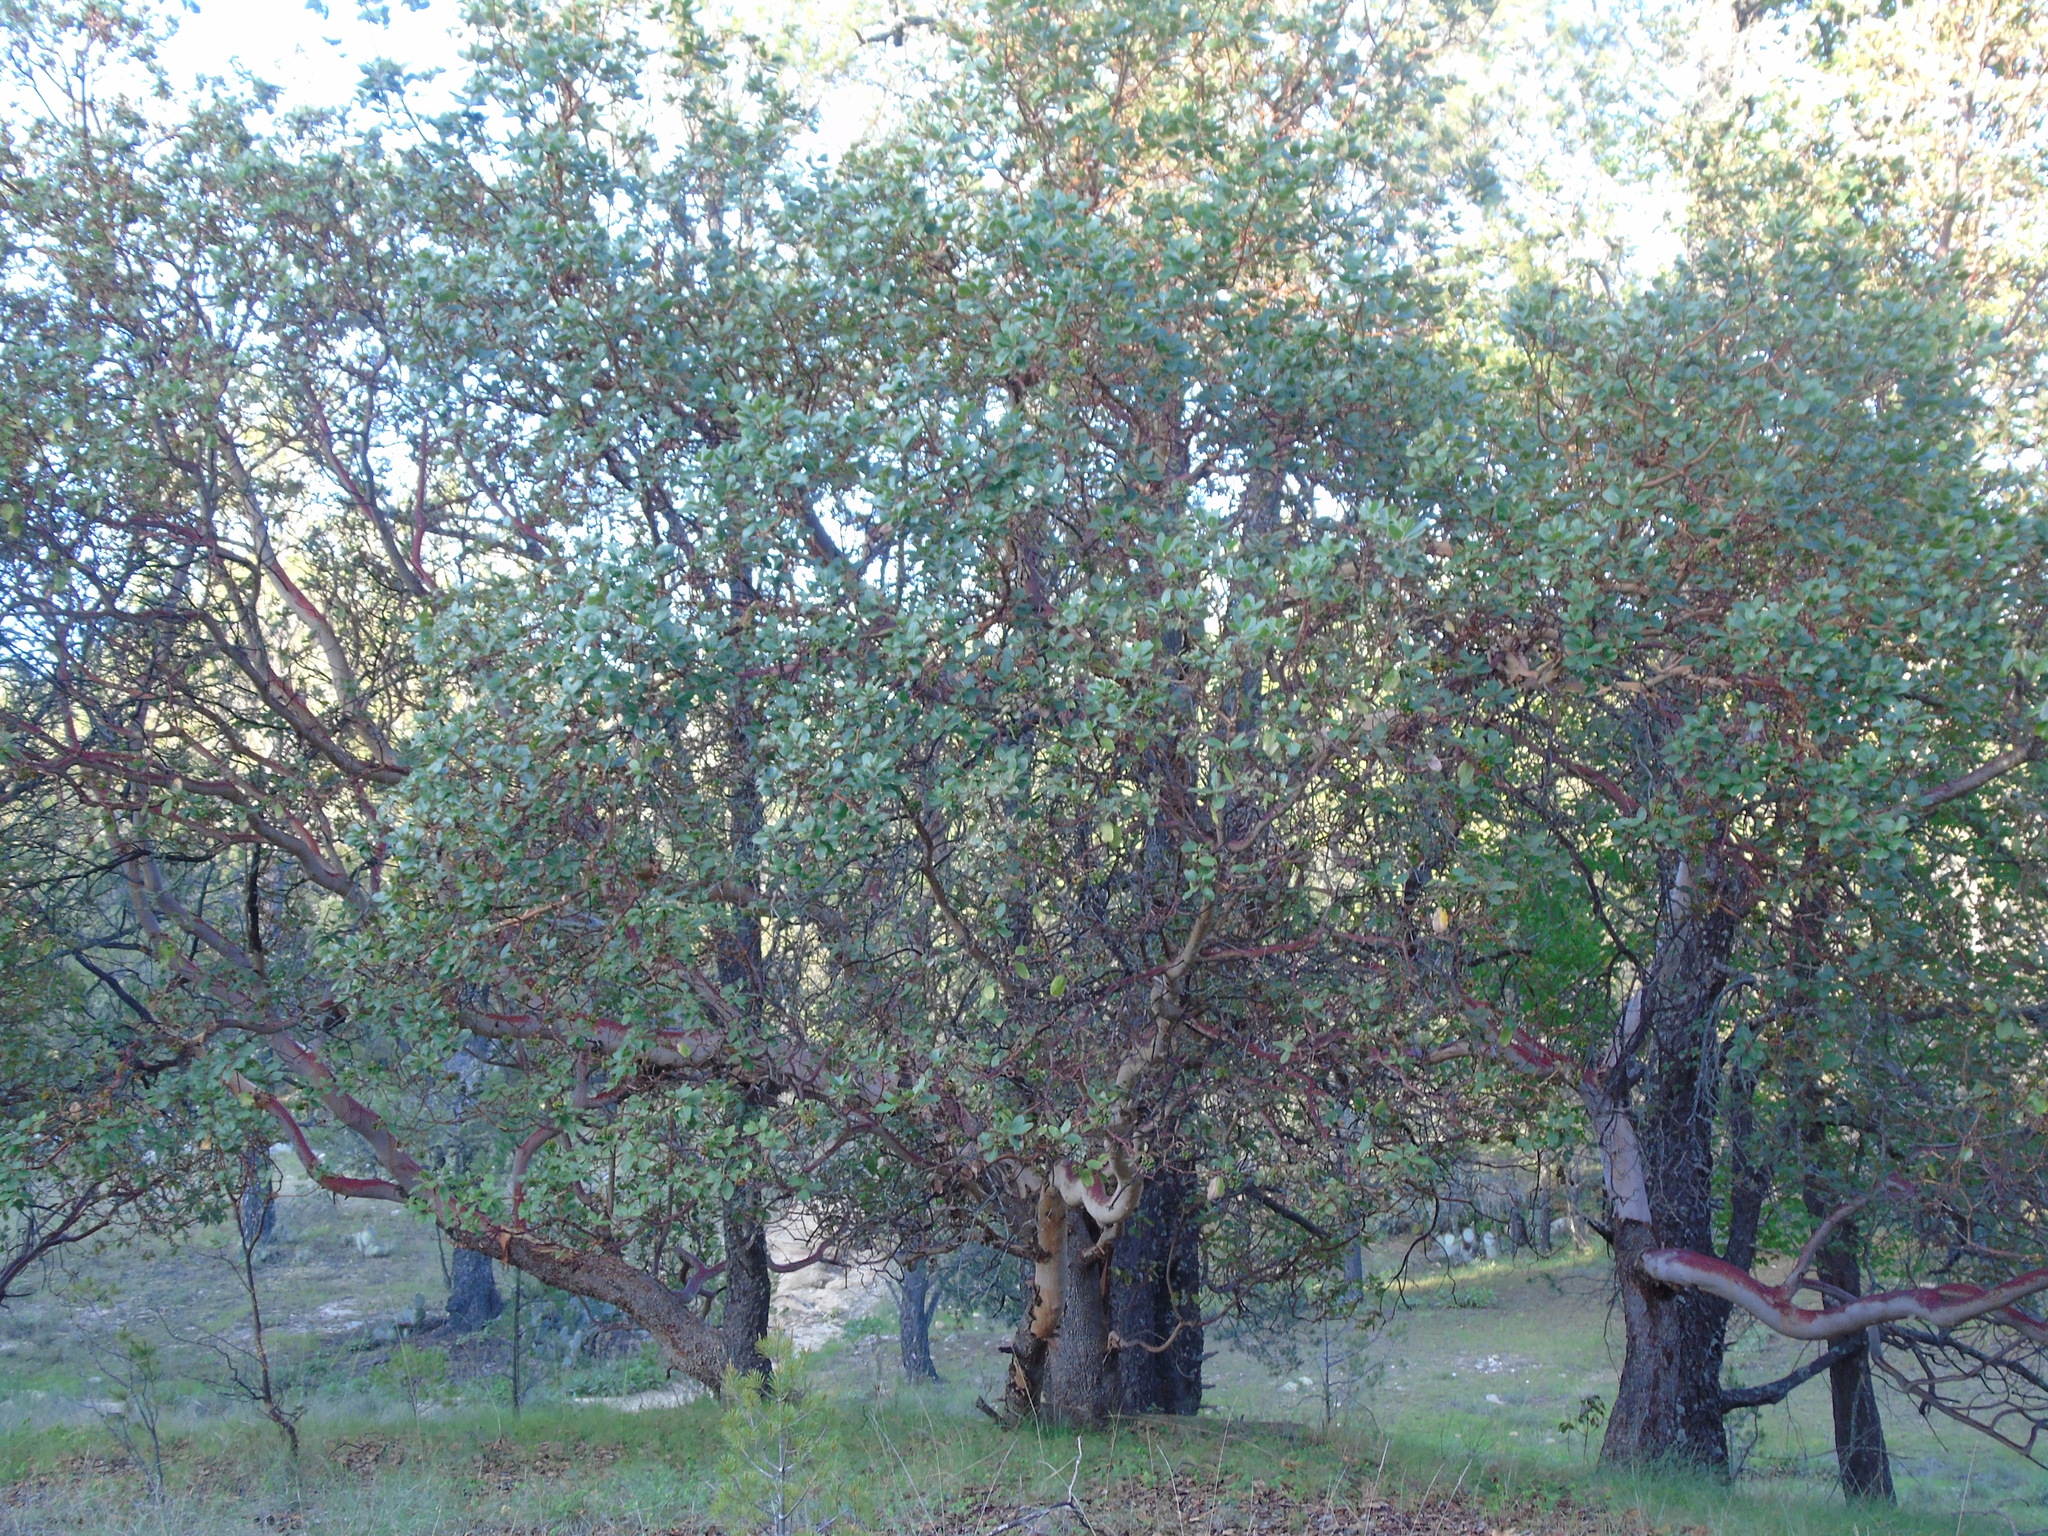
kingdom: Plantae
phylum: Tracheophyta
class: Magnoliopsida
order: Ericales
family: Ericaceae
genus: Arbutus
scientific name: Arbutus xalapensis
